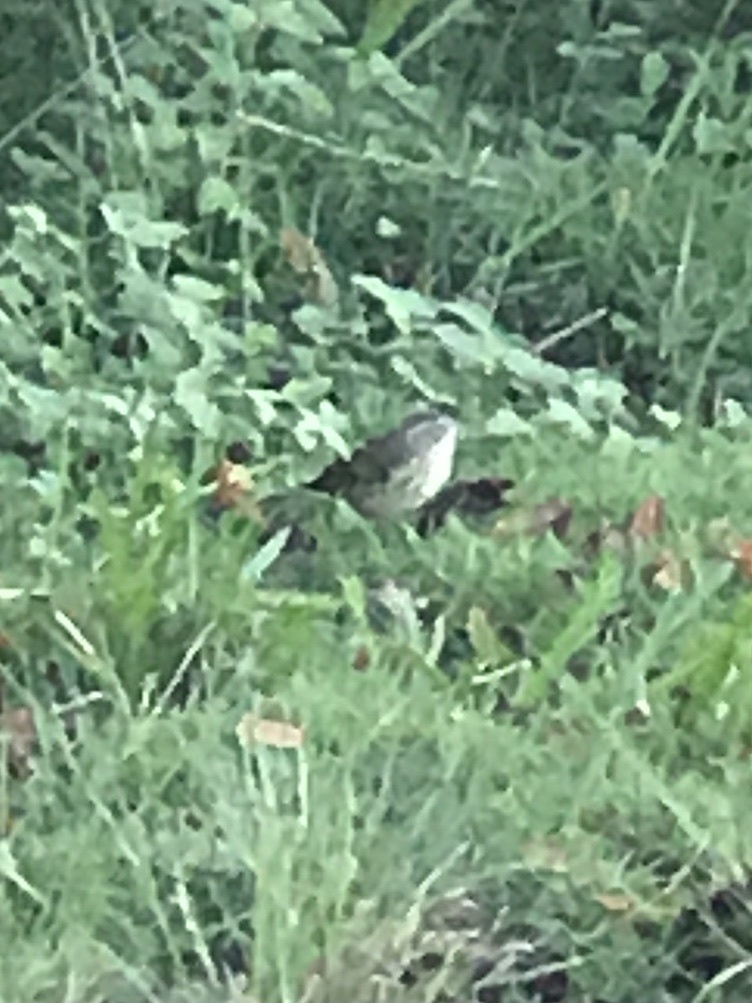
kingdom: Animalia
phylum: Chordata
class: Aves
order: Passeriformes
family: Parulidae
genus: Setophaga
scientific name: Setophaga palmarum
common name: Palm warbler
